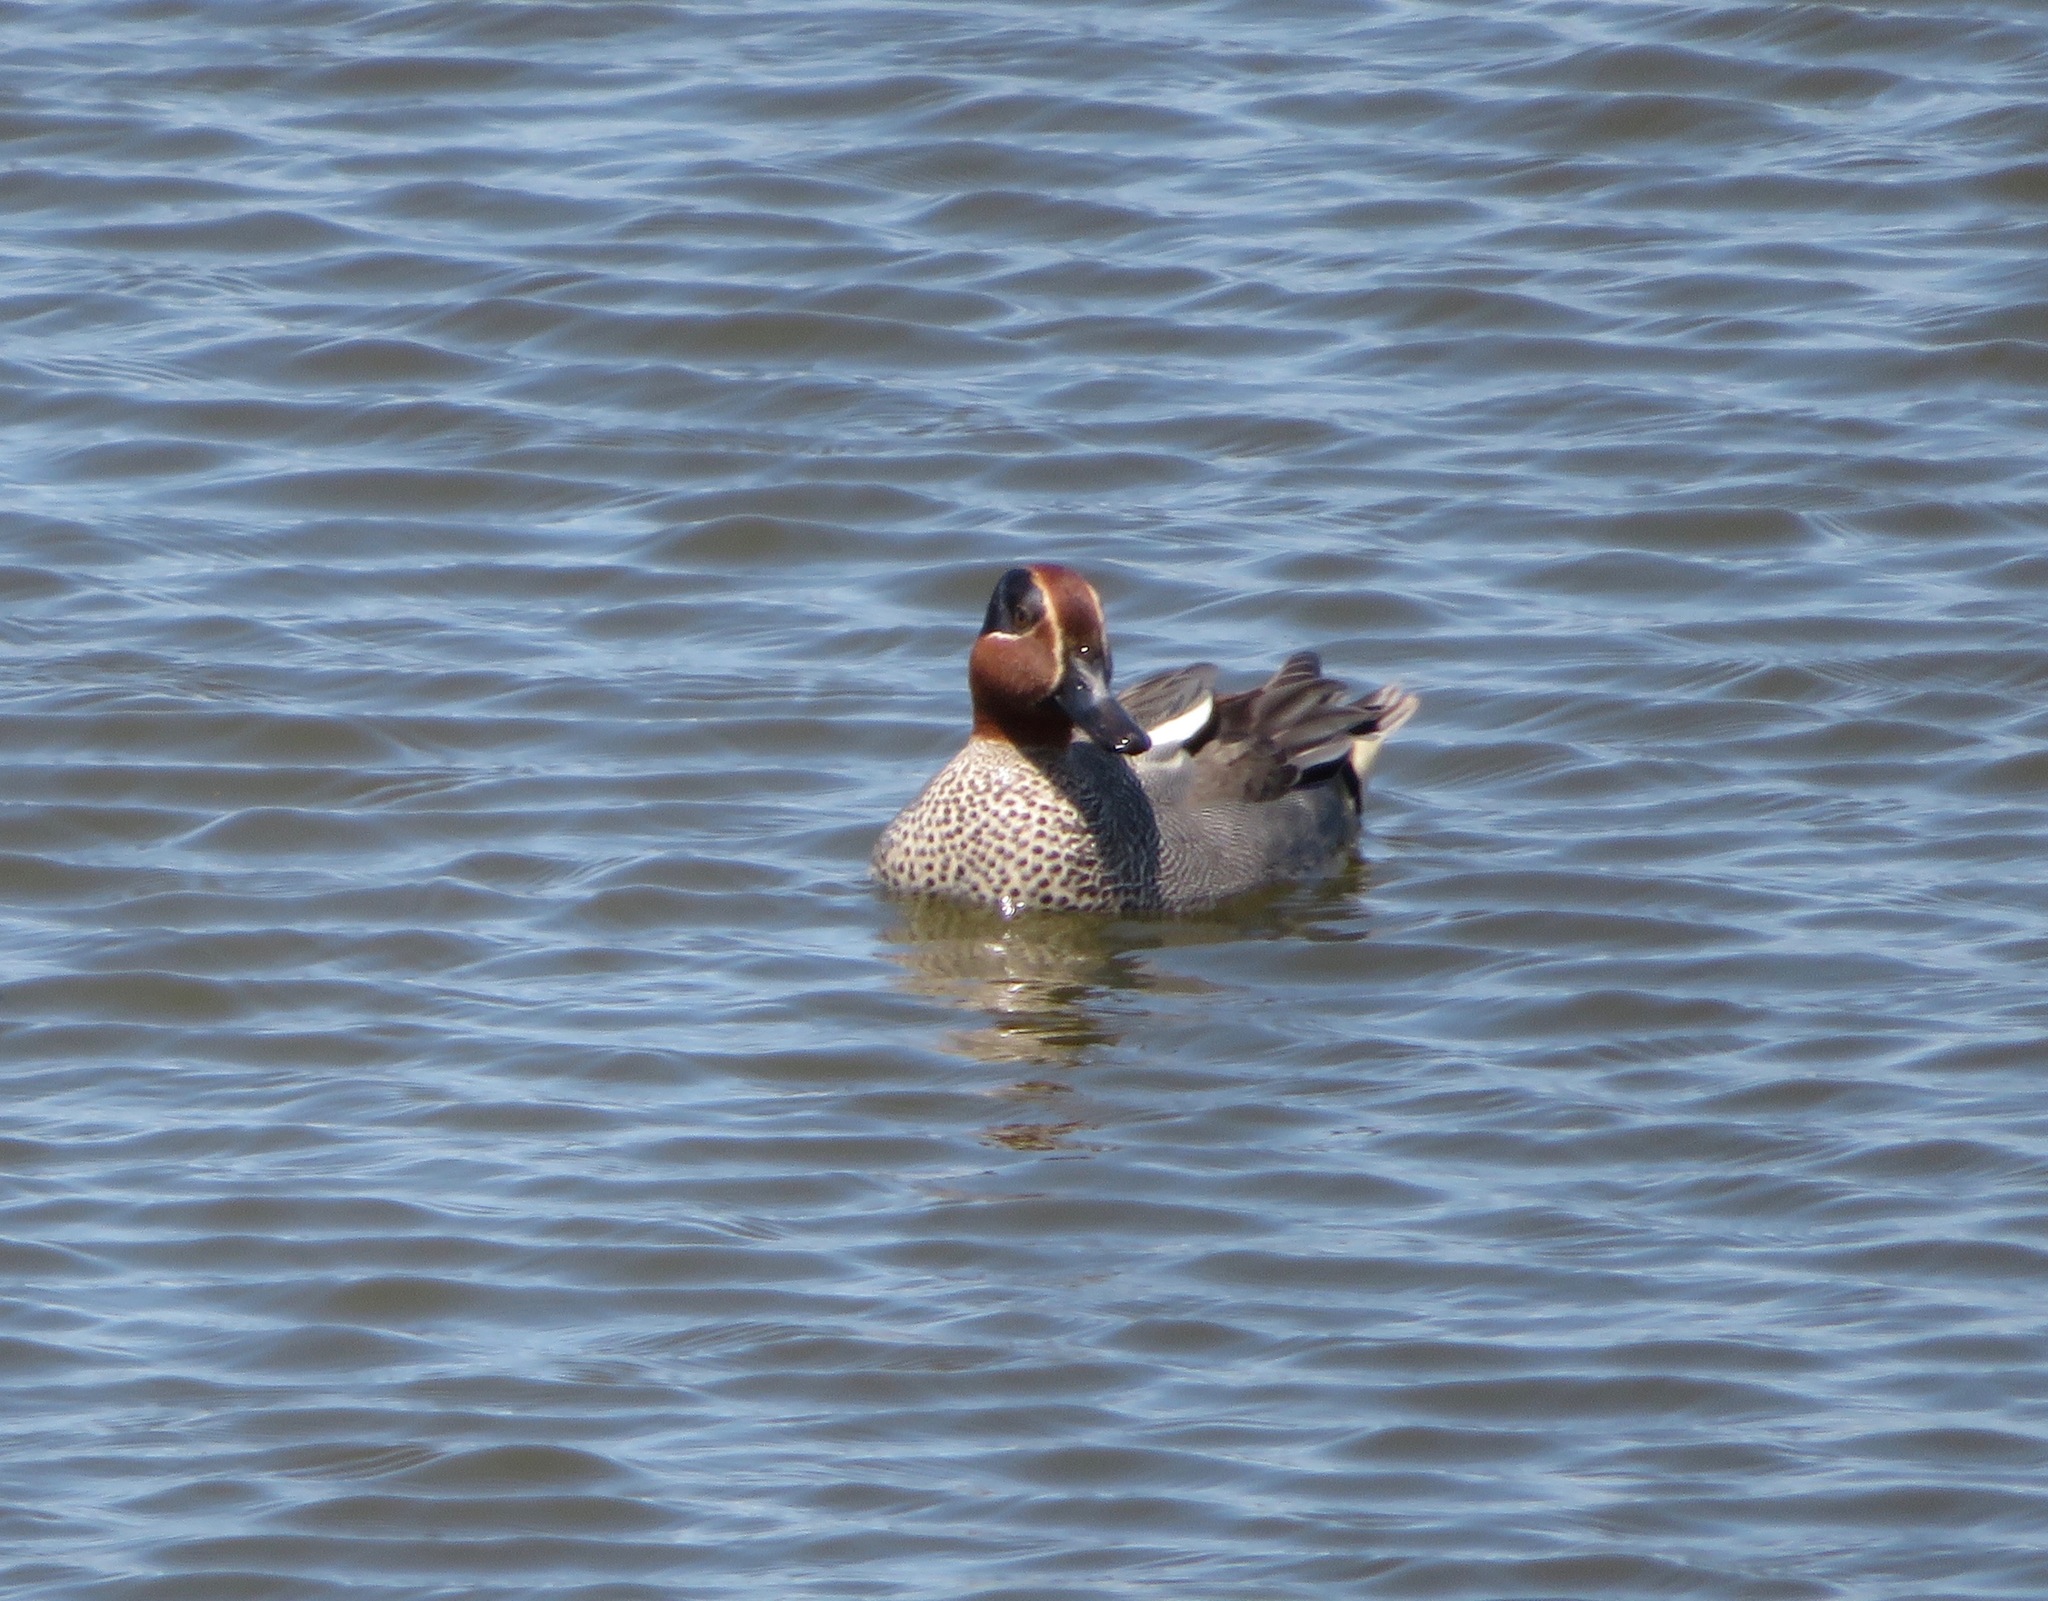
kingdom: Animalia
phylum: Chordata
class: Aves
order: Anseriformes
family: Anatidae
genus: Anas
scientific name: Anas crecca
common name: Eurasian teal
